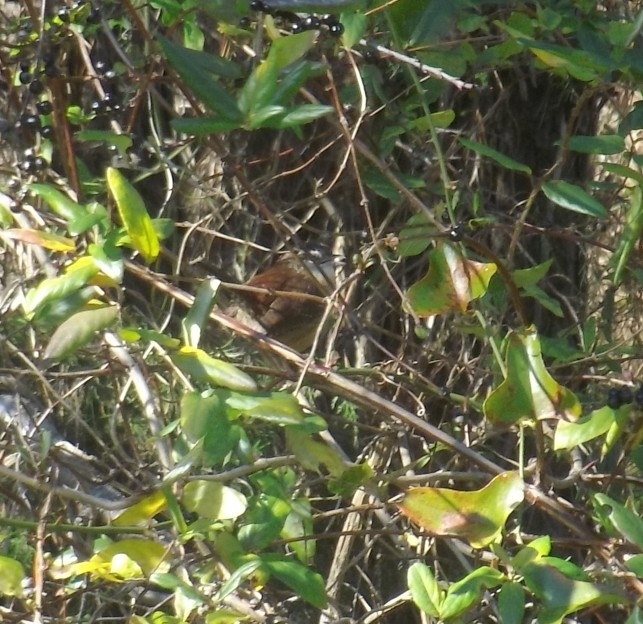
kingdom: Animalia
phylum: Chordata
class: Aves
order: Passeriformes
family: Troglodytidae
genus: Thryothorus
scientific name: Thryothorus ludovicianus
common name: Carolina wren
